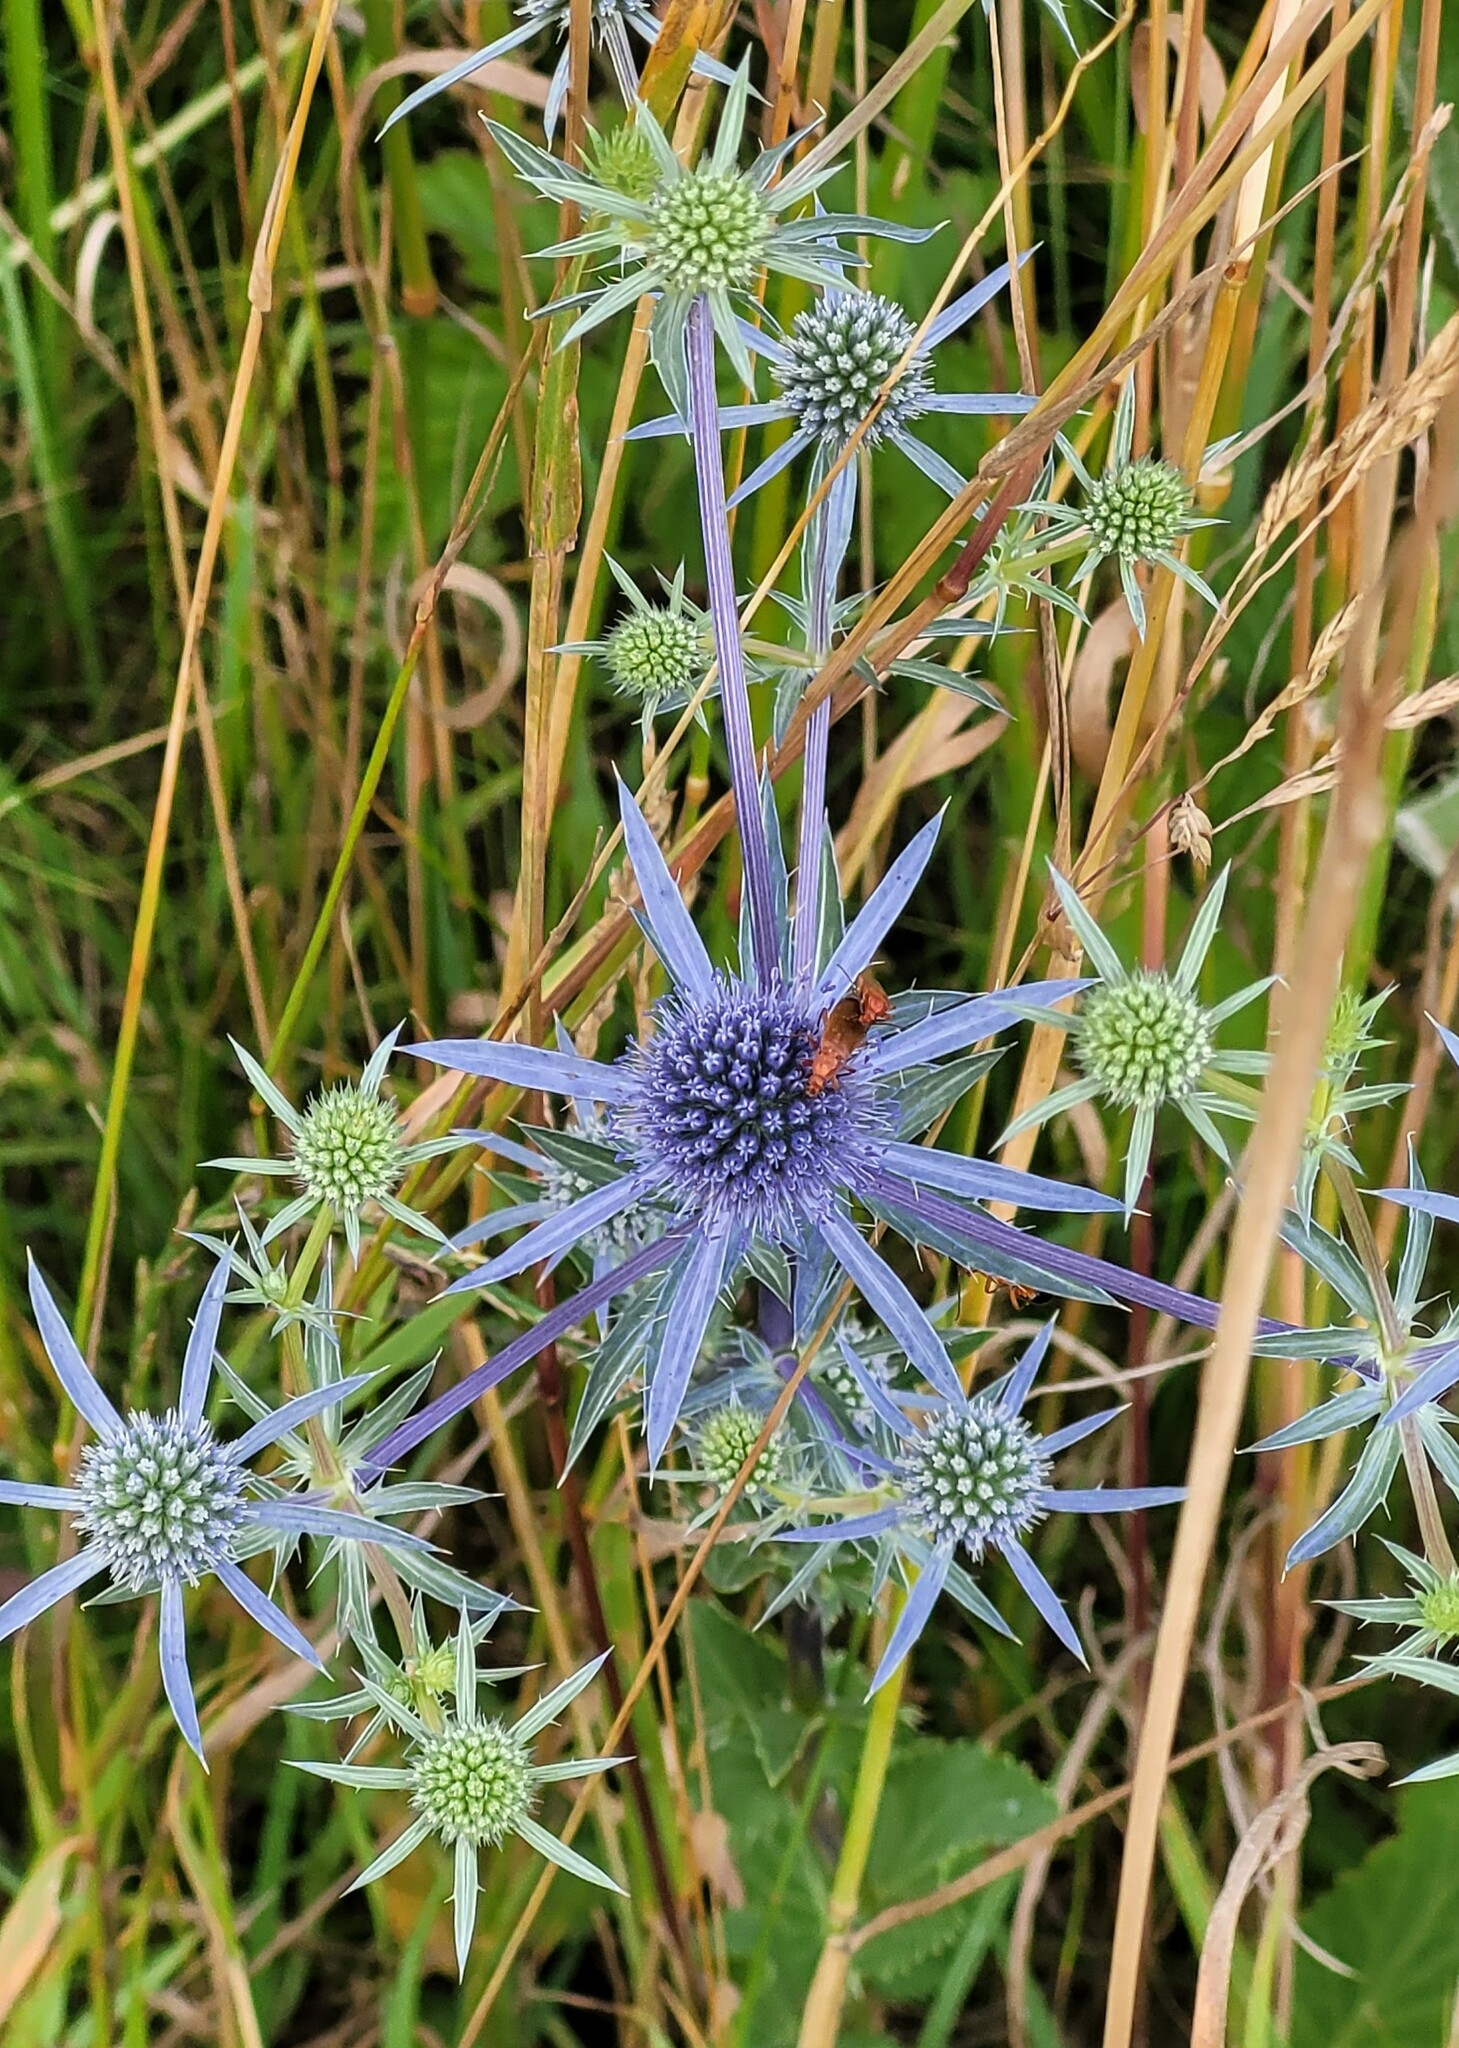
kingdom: Plantae
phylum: Tracheophyta
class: Magnoliopsida
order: Apiales
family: Apiaceae
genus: Eryngium
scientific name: Eryngium planum
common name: Blue eryngo
